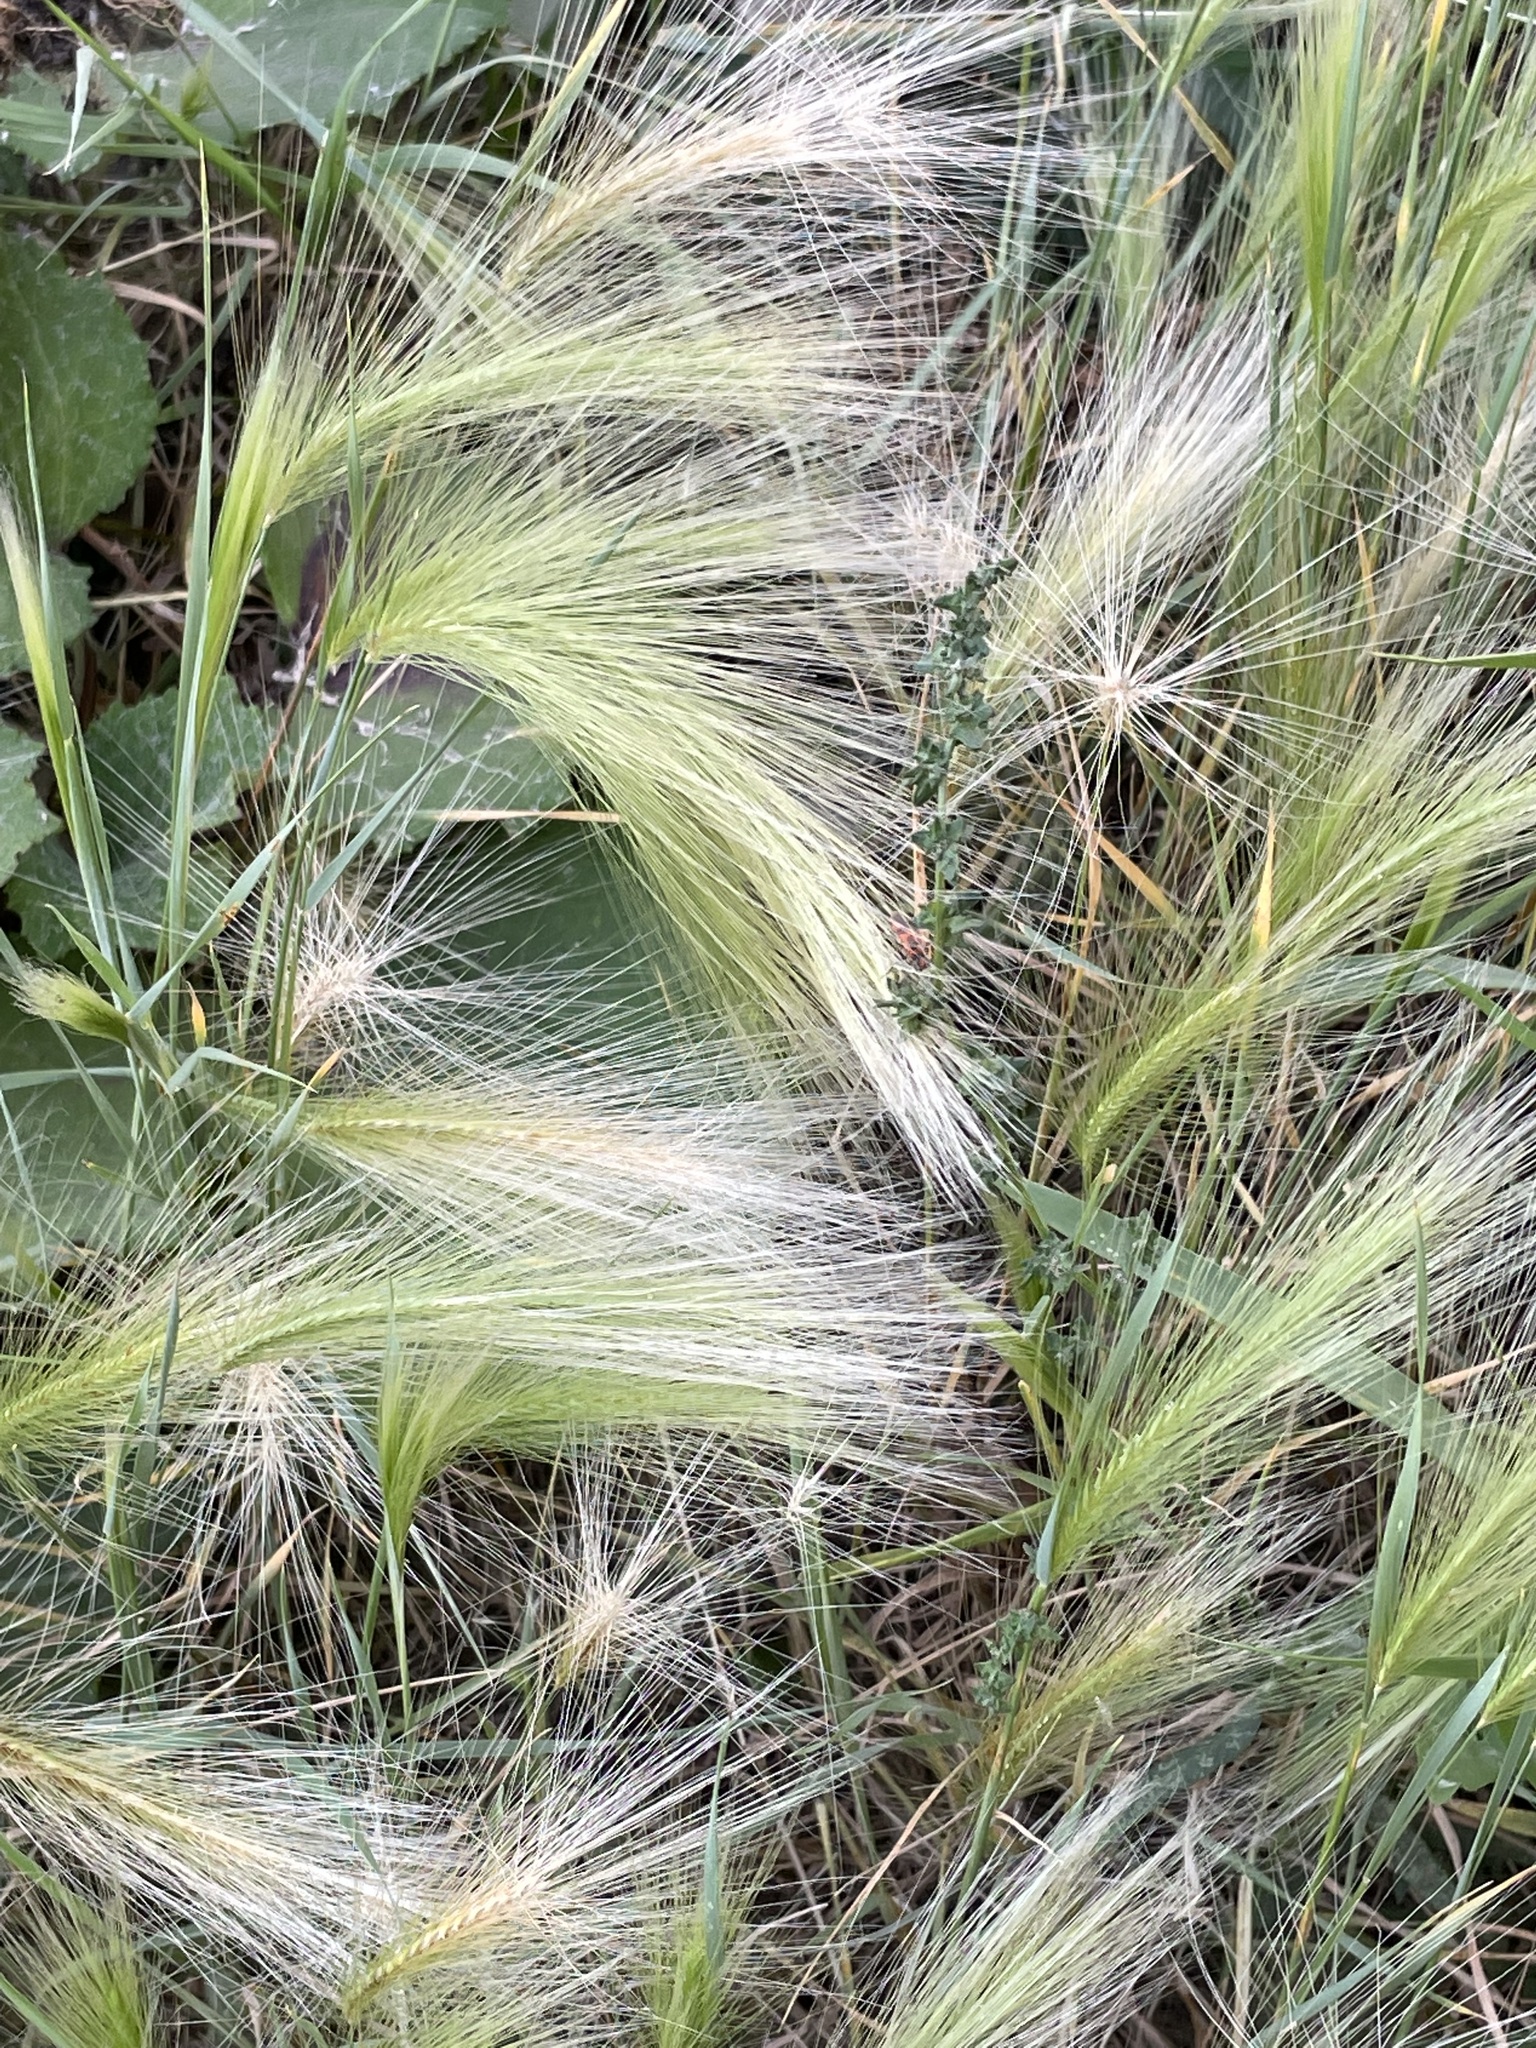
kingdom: Plantae
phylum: Tracheophyta
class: Liliopsida
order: Poales
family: Poaceae
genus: Hordeum
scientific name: Hordeum jubatum
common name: Foxtail barley
